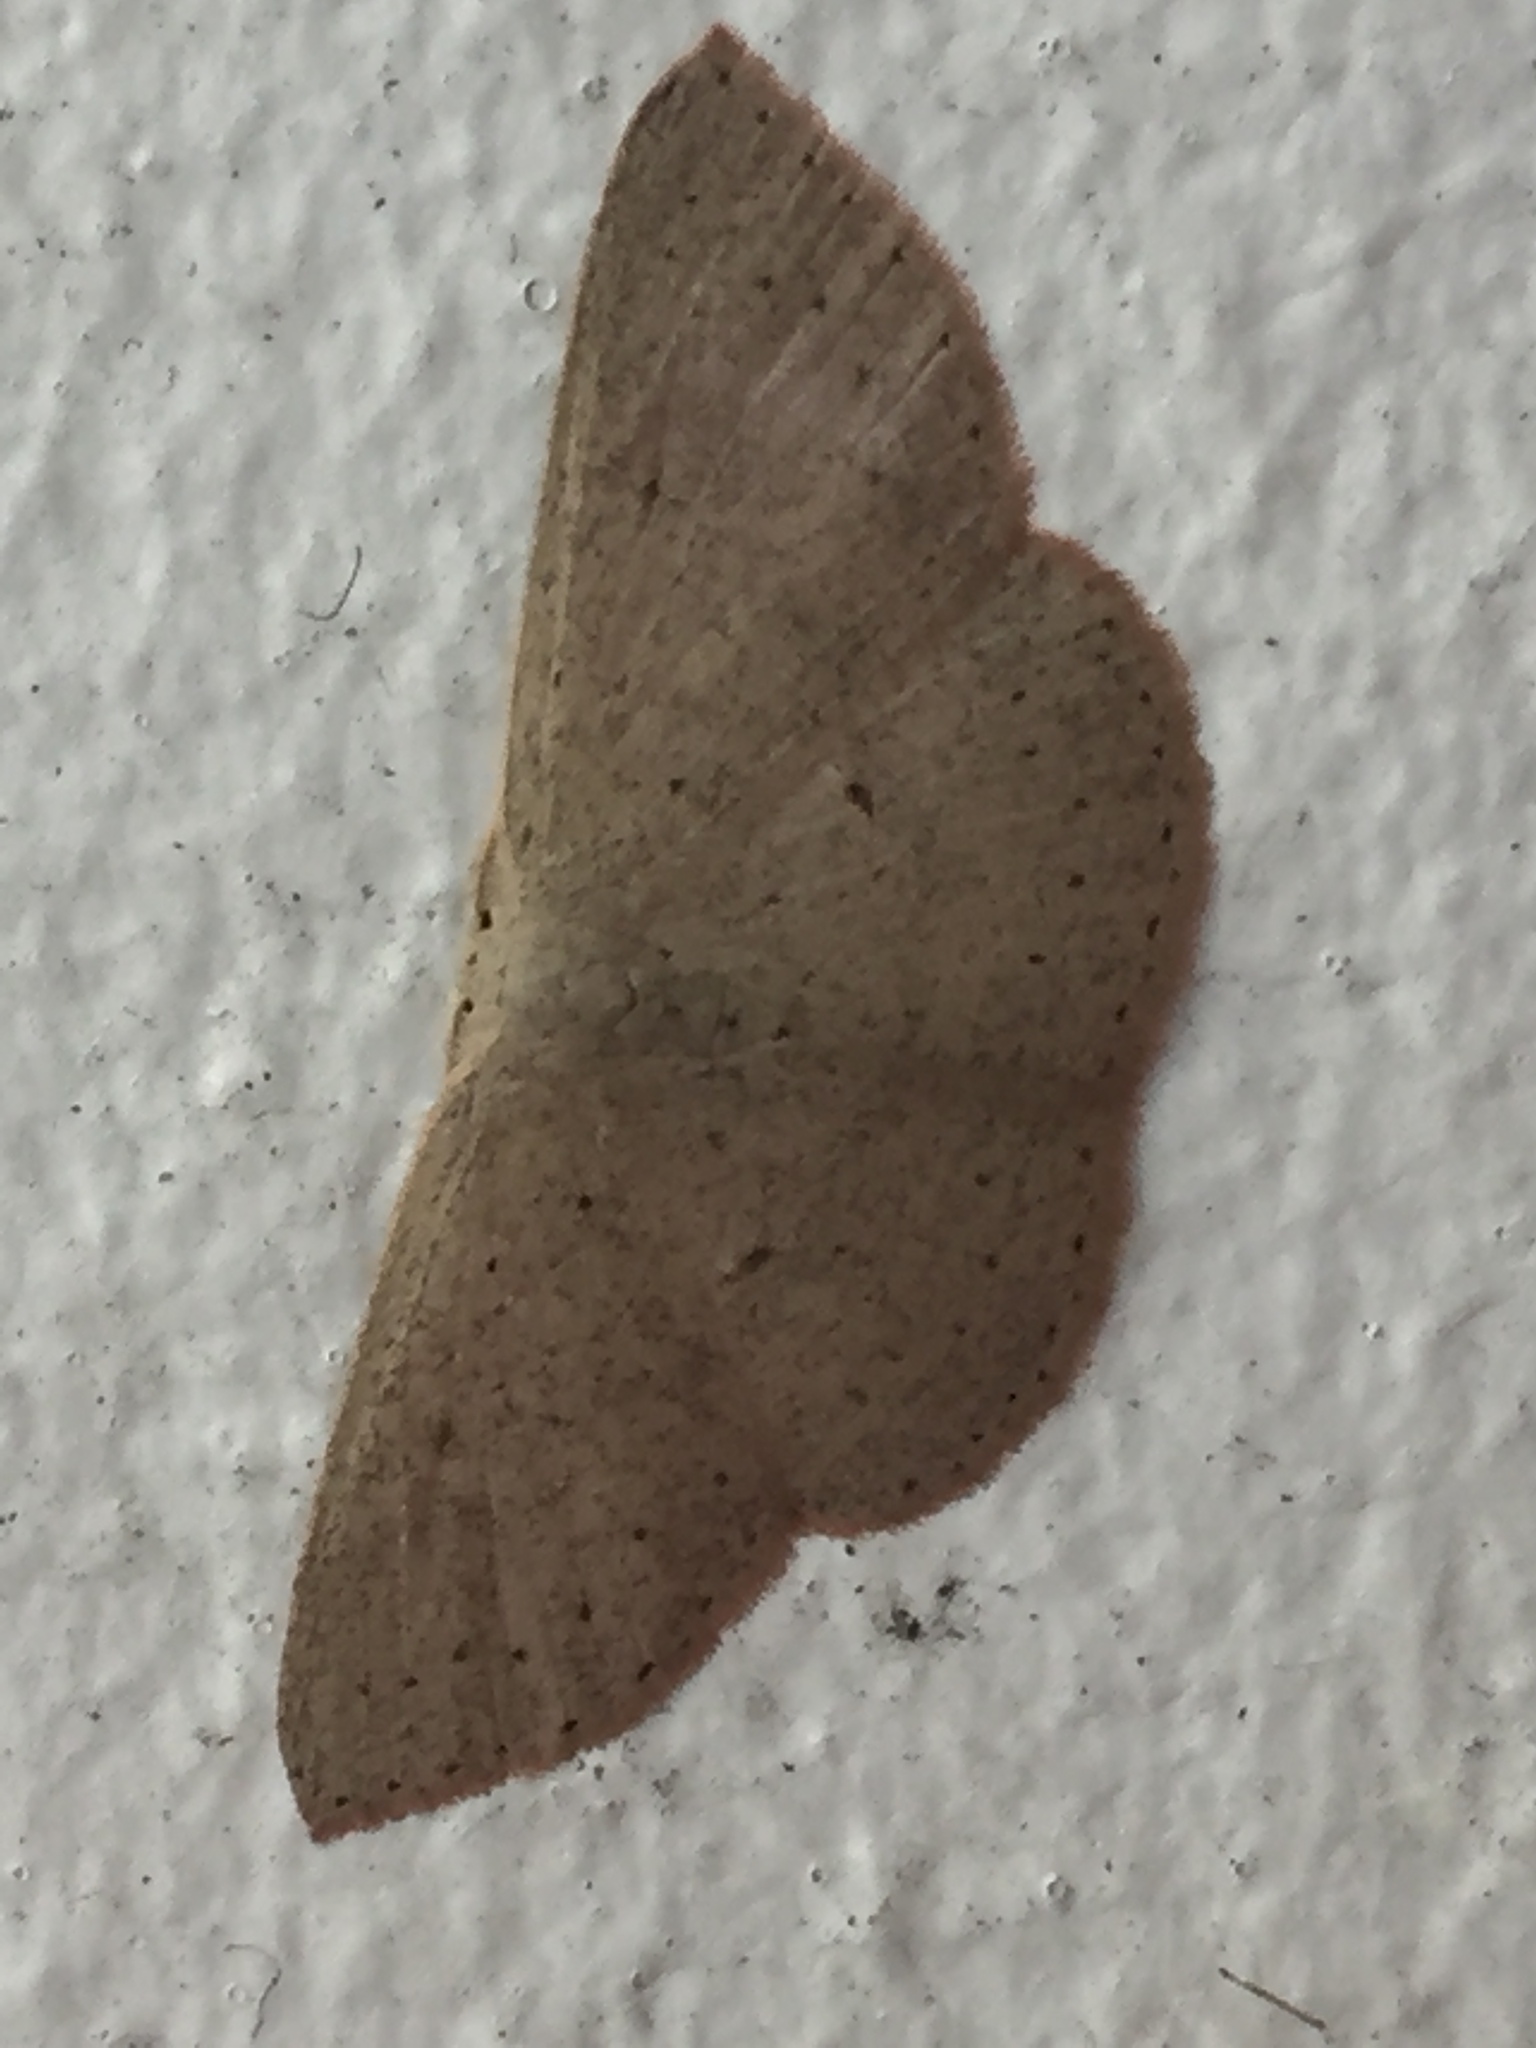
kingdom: Animalia
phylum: Arthropoda
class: Insecta
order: Lepidoptera
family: Geometridae
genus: Cyclophora
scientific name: Cyclophora obstataria
